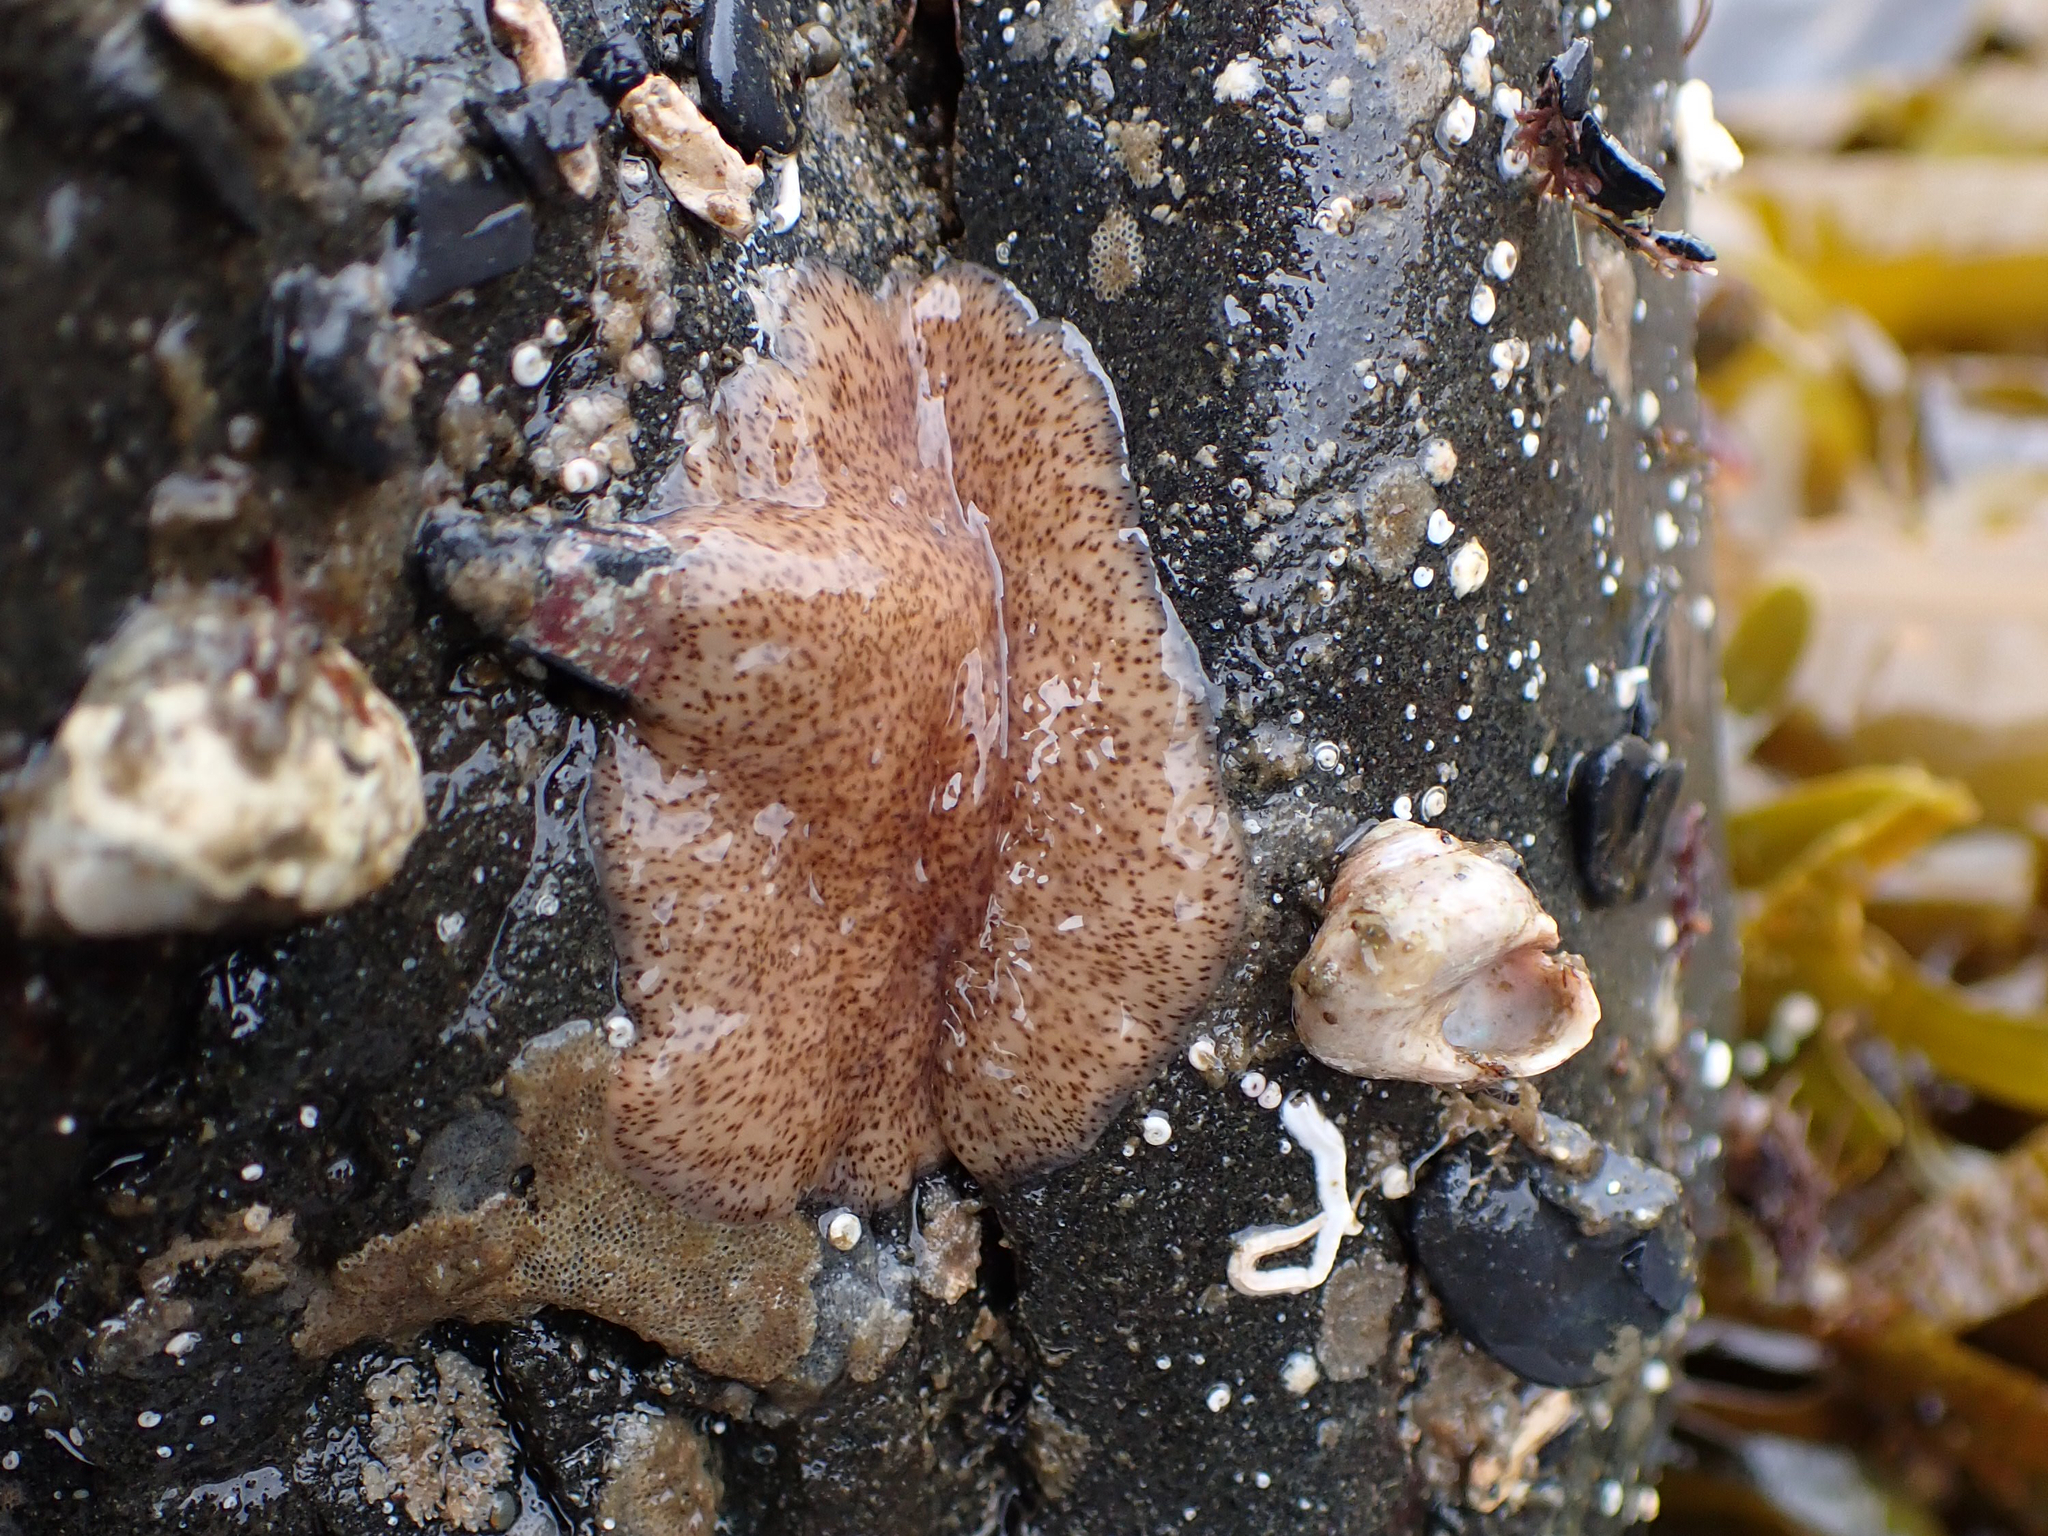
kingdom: Animalia
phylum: Platyhelminthes
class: Turbellaria
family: Callioplanidae
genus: Kaburakia
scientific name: Kaburakia excelsa
